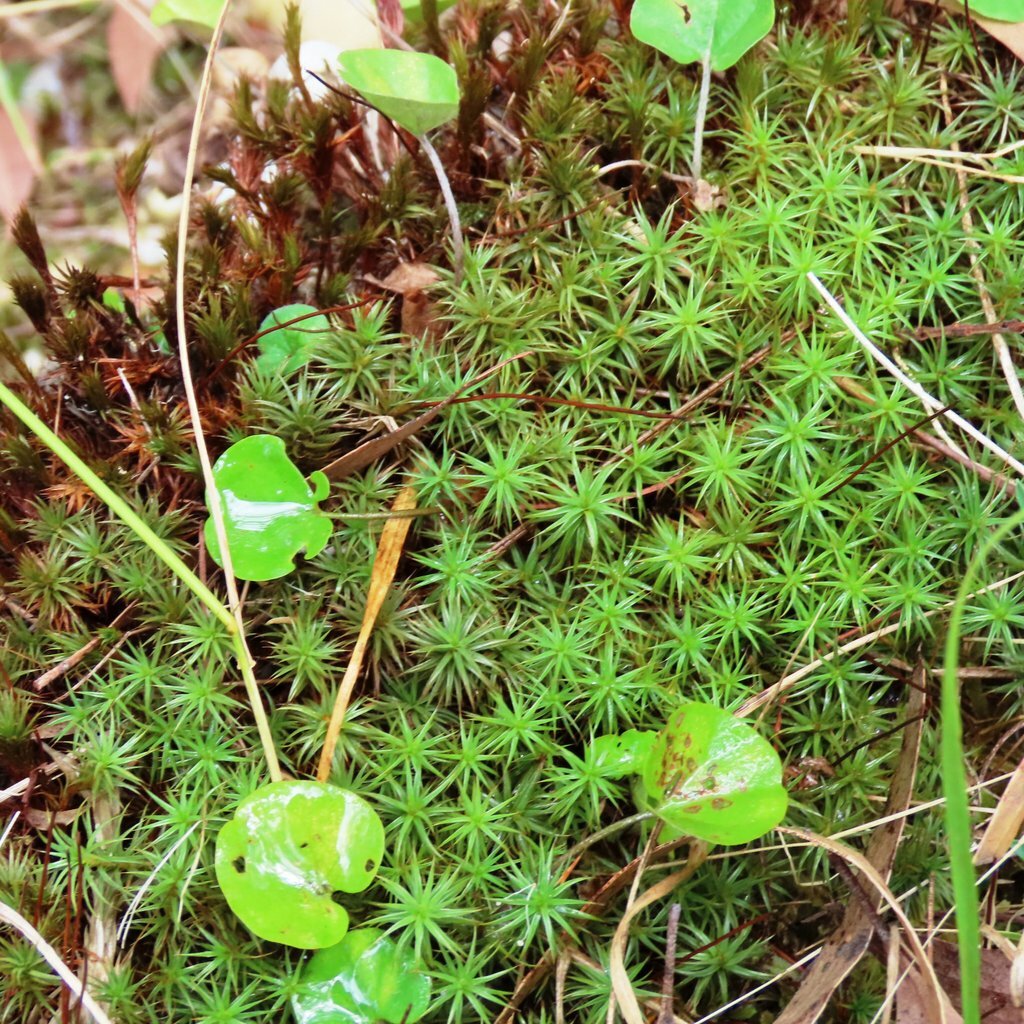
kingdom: Plantae
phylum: Bryophyta
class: Polytrichopsida
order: Polytrichales
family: Polytrichaceae
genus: Polytrichum
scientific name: Polytrichum juniperinum
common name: Juniper haircap moss
